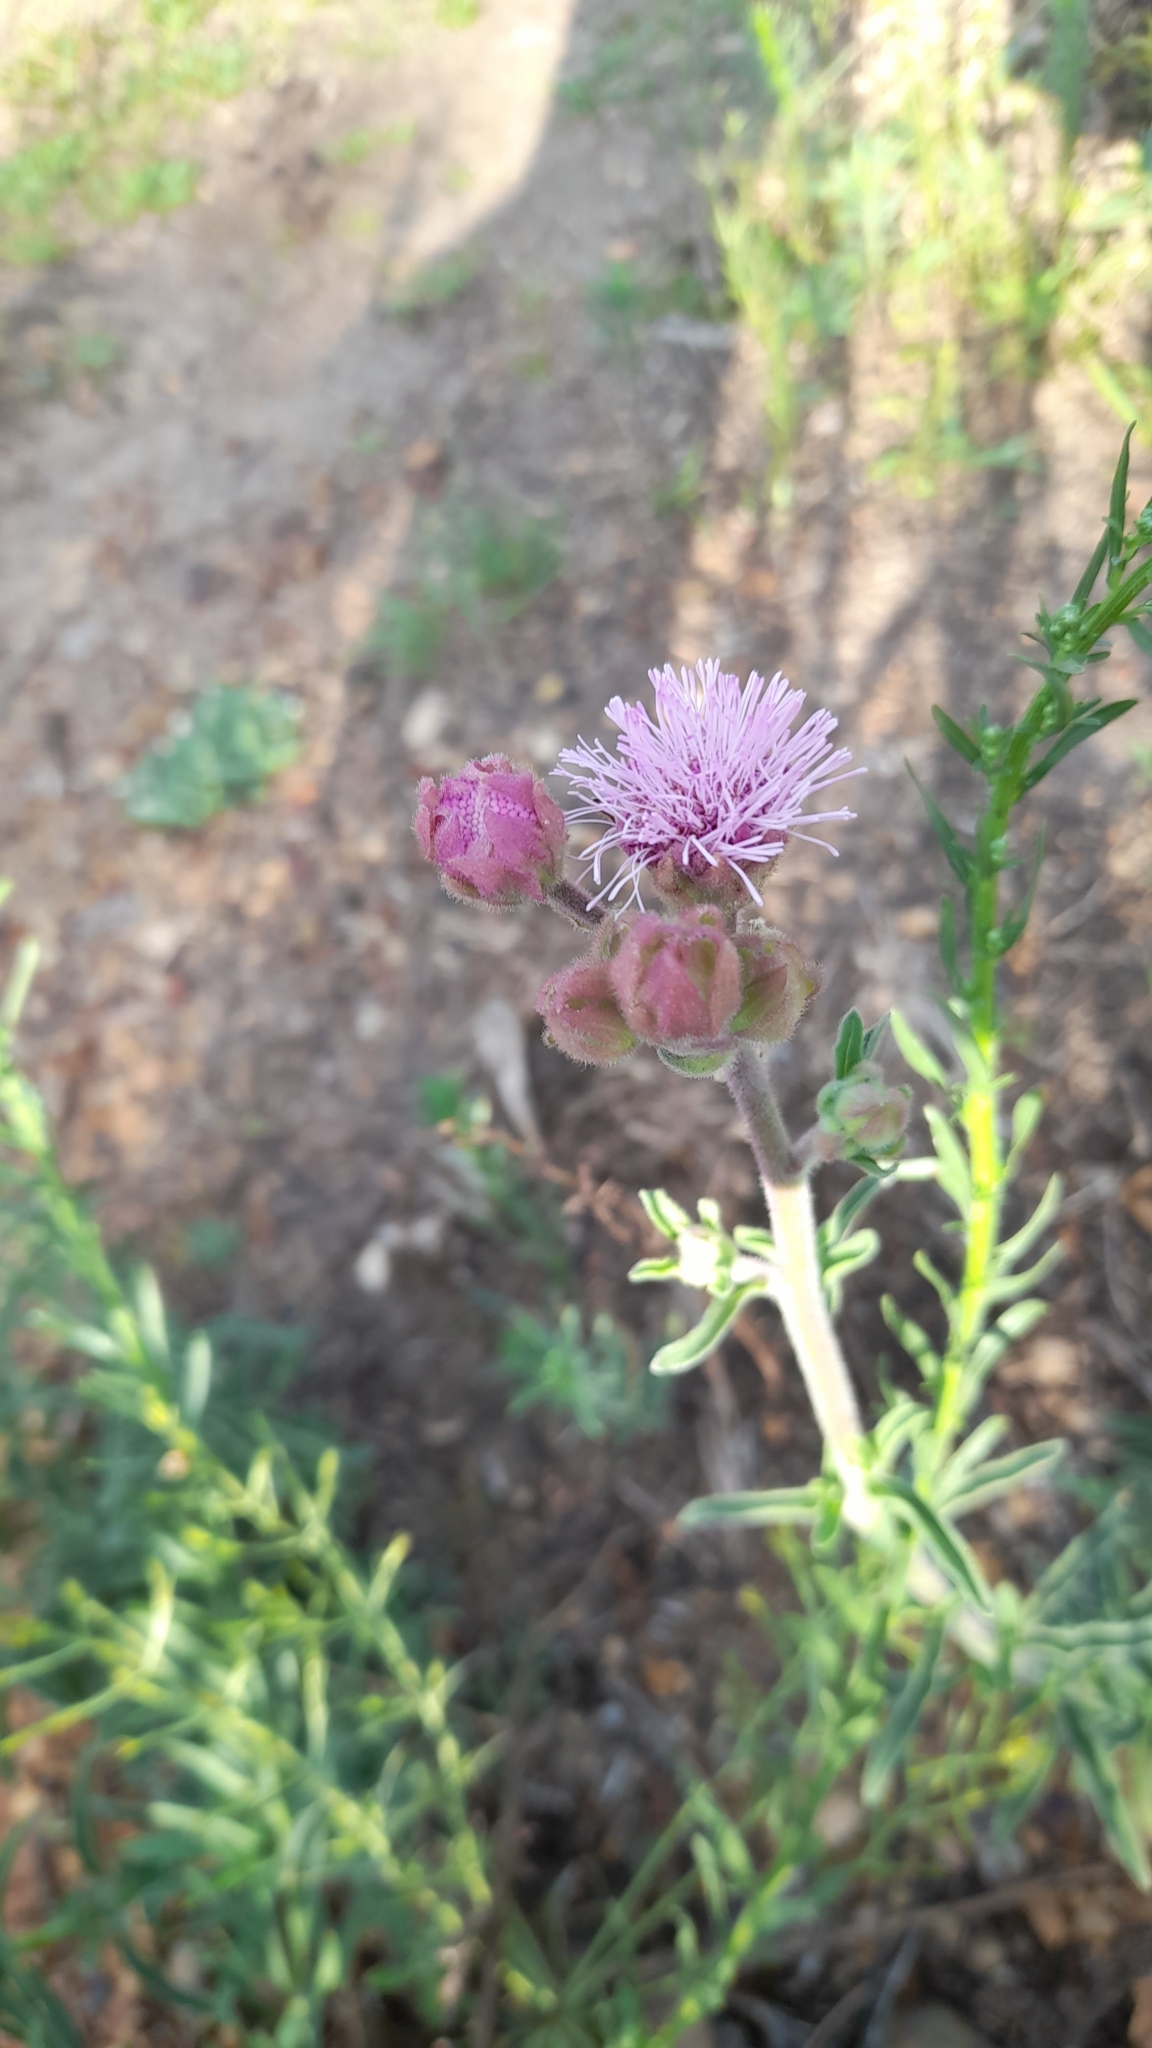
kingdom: Plantae
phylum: Tracheophyta
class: Magnoliopsida
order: Asterales
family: Asteraceae
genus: Campuloclinium
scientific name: Campuloclinium macrocephalum
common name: Pompomweed
